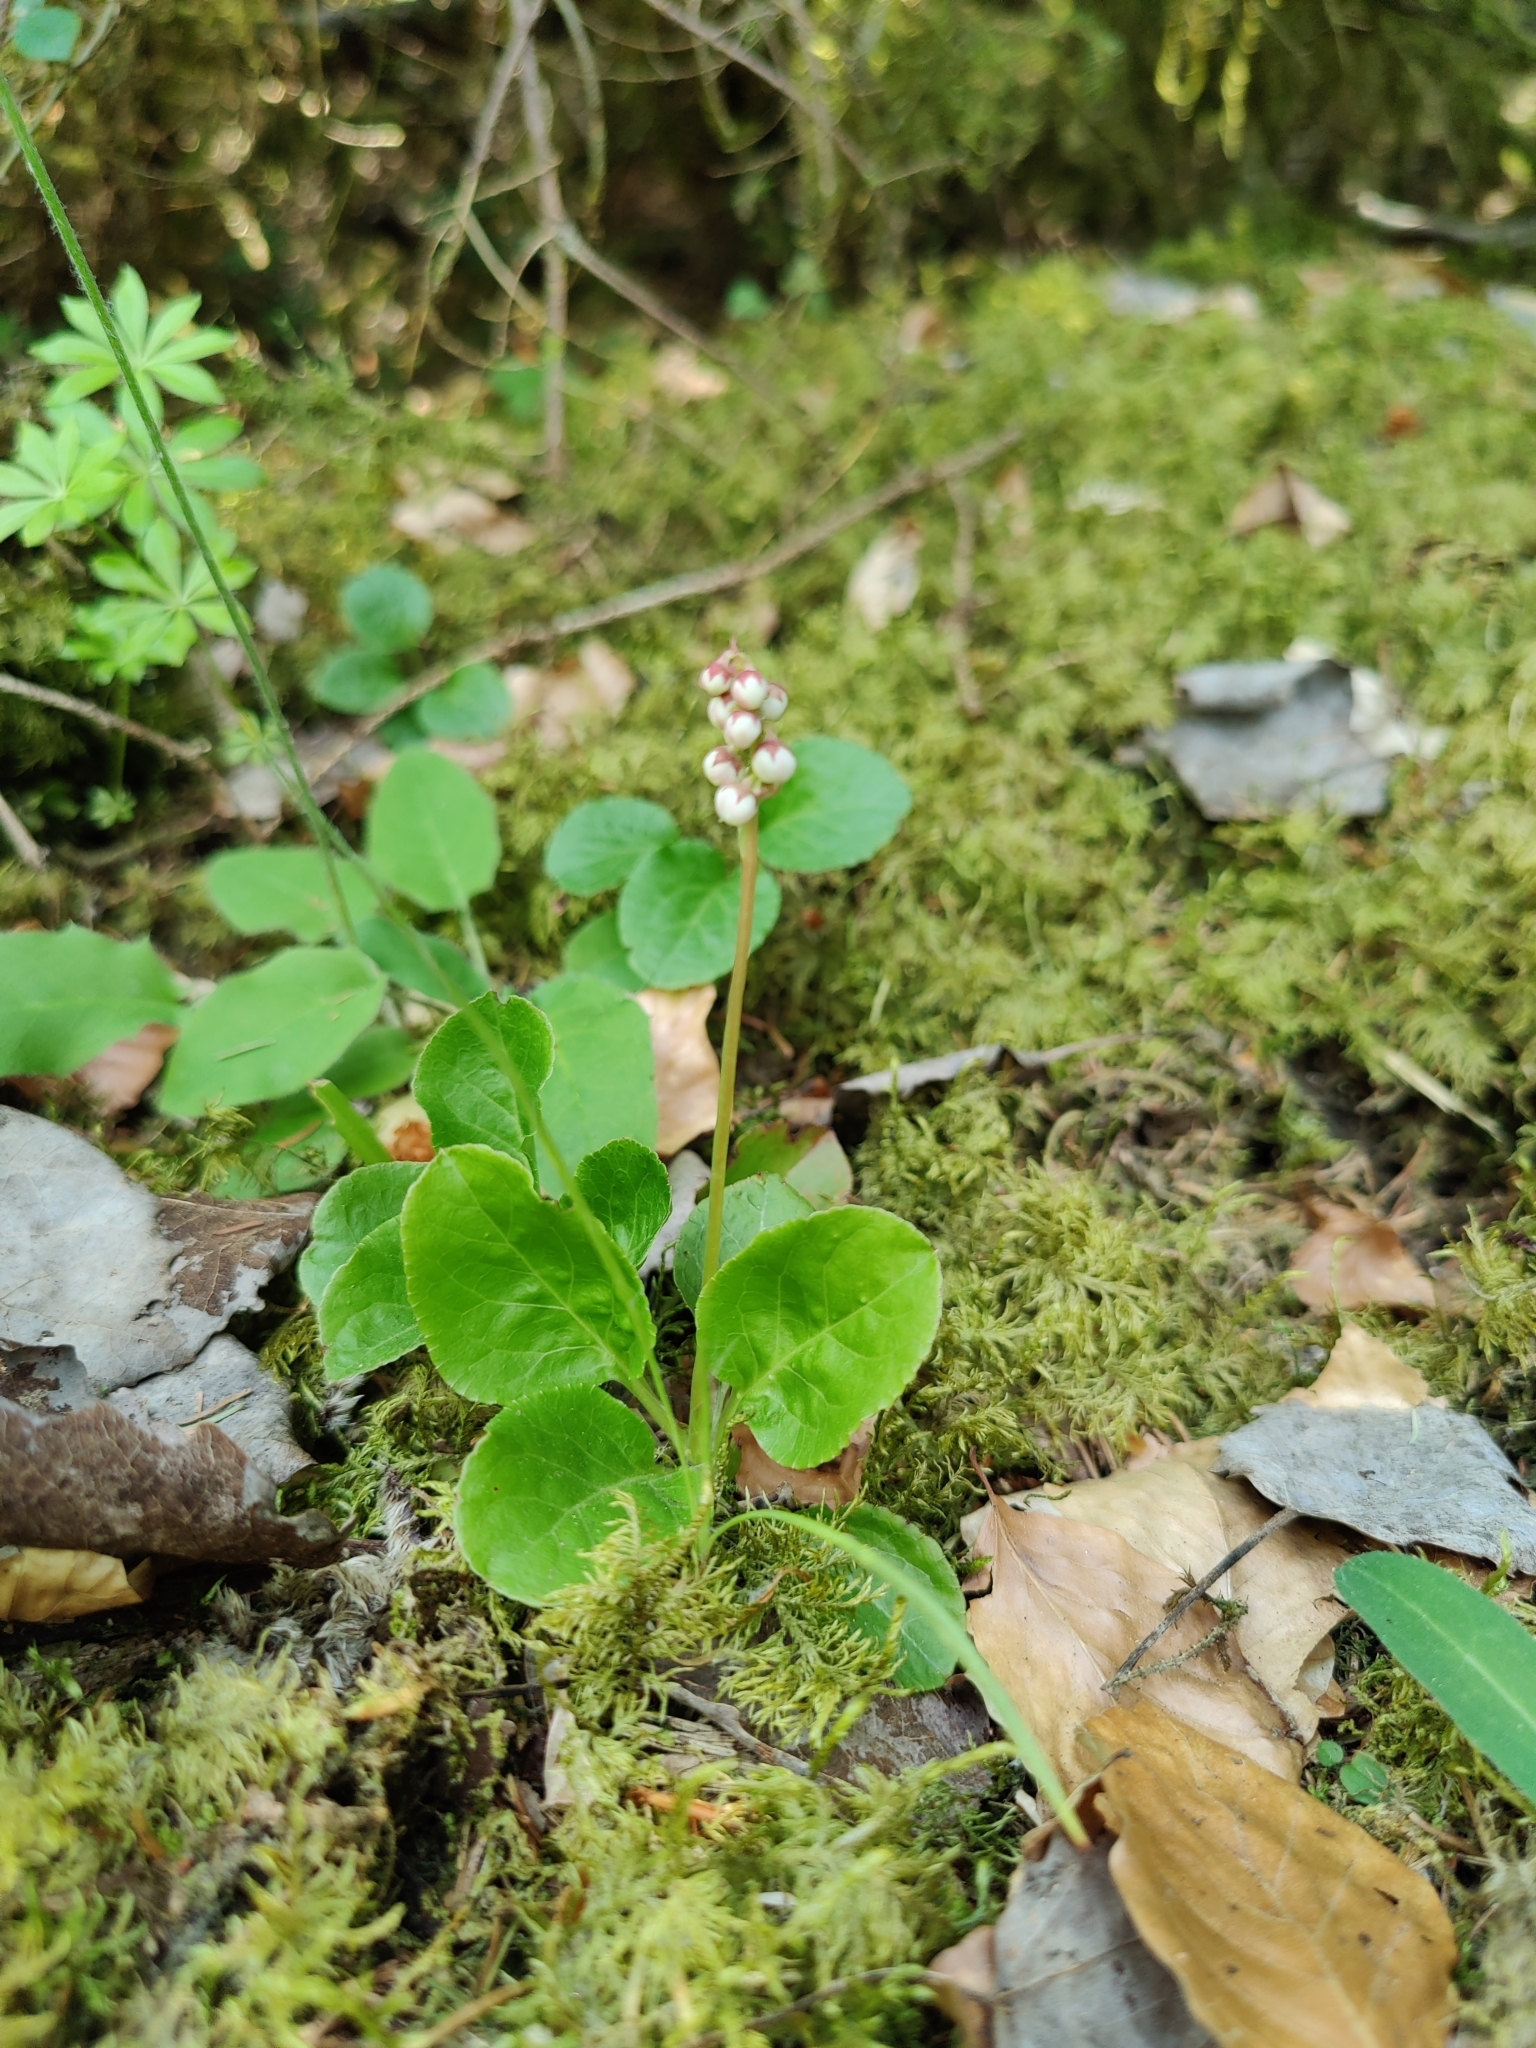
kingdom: Plantae
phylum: Tracheophyta
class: Magnoliopsida
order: Ericales
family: Ericaceae
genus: Pyrola
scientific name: Pyrola minor
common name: Common wintergreen
